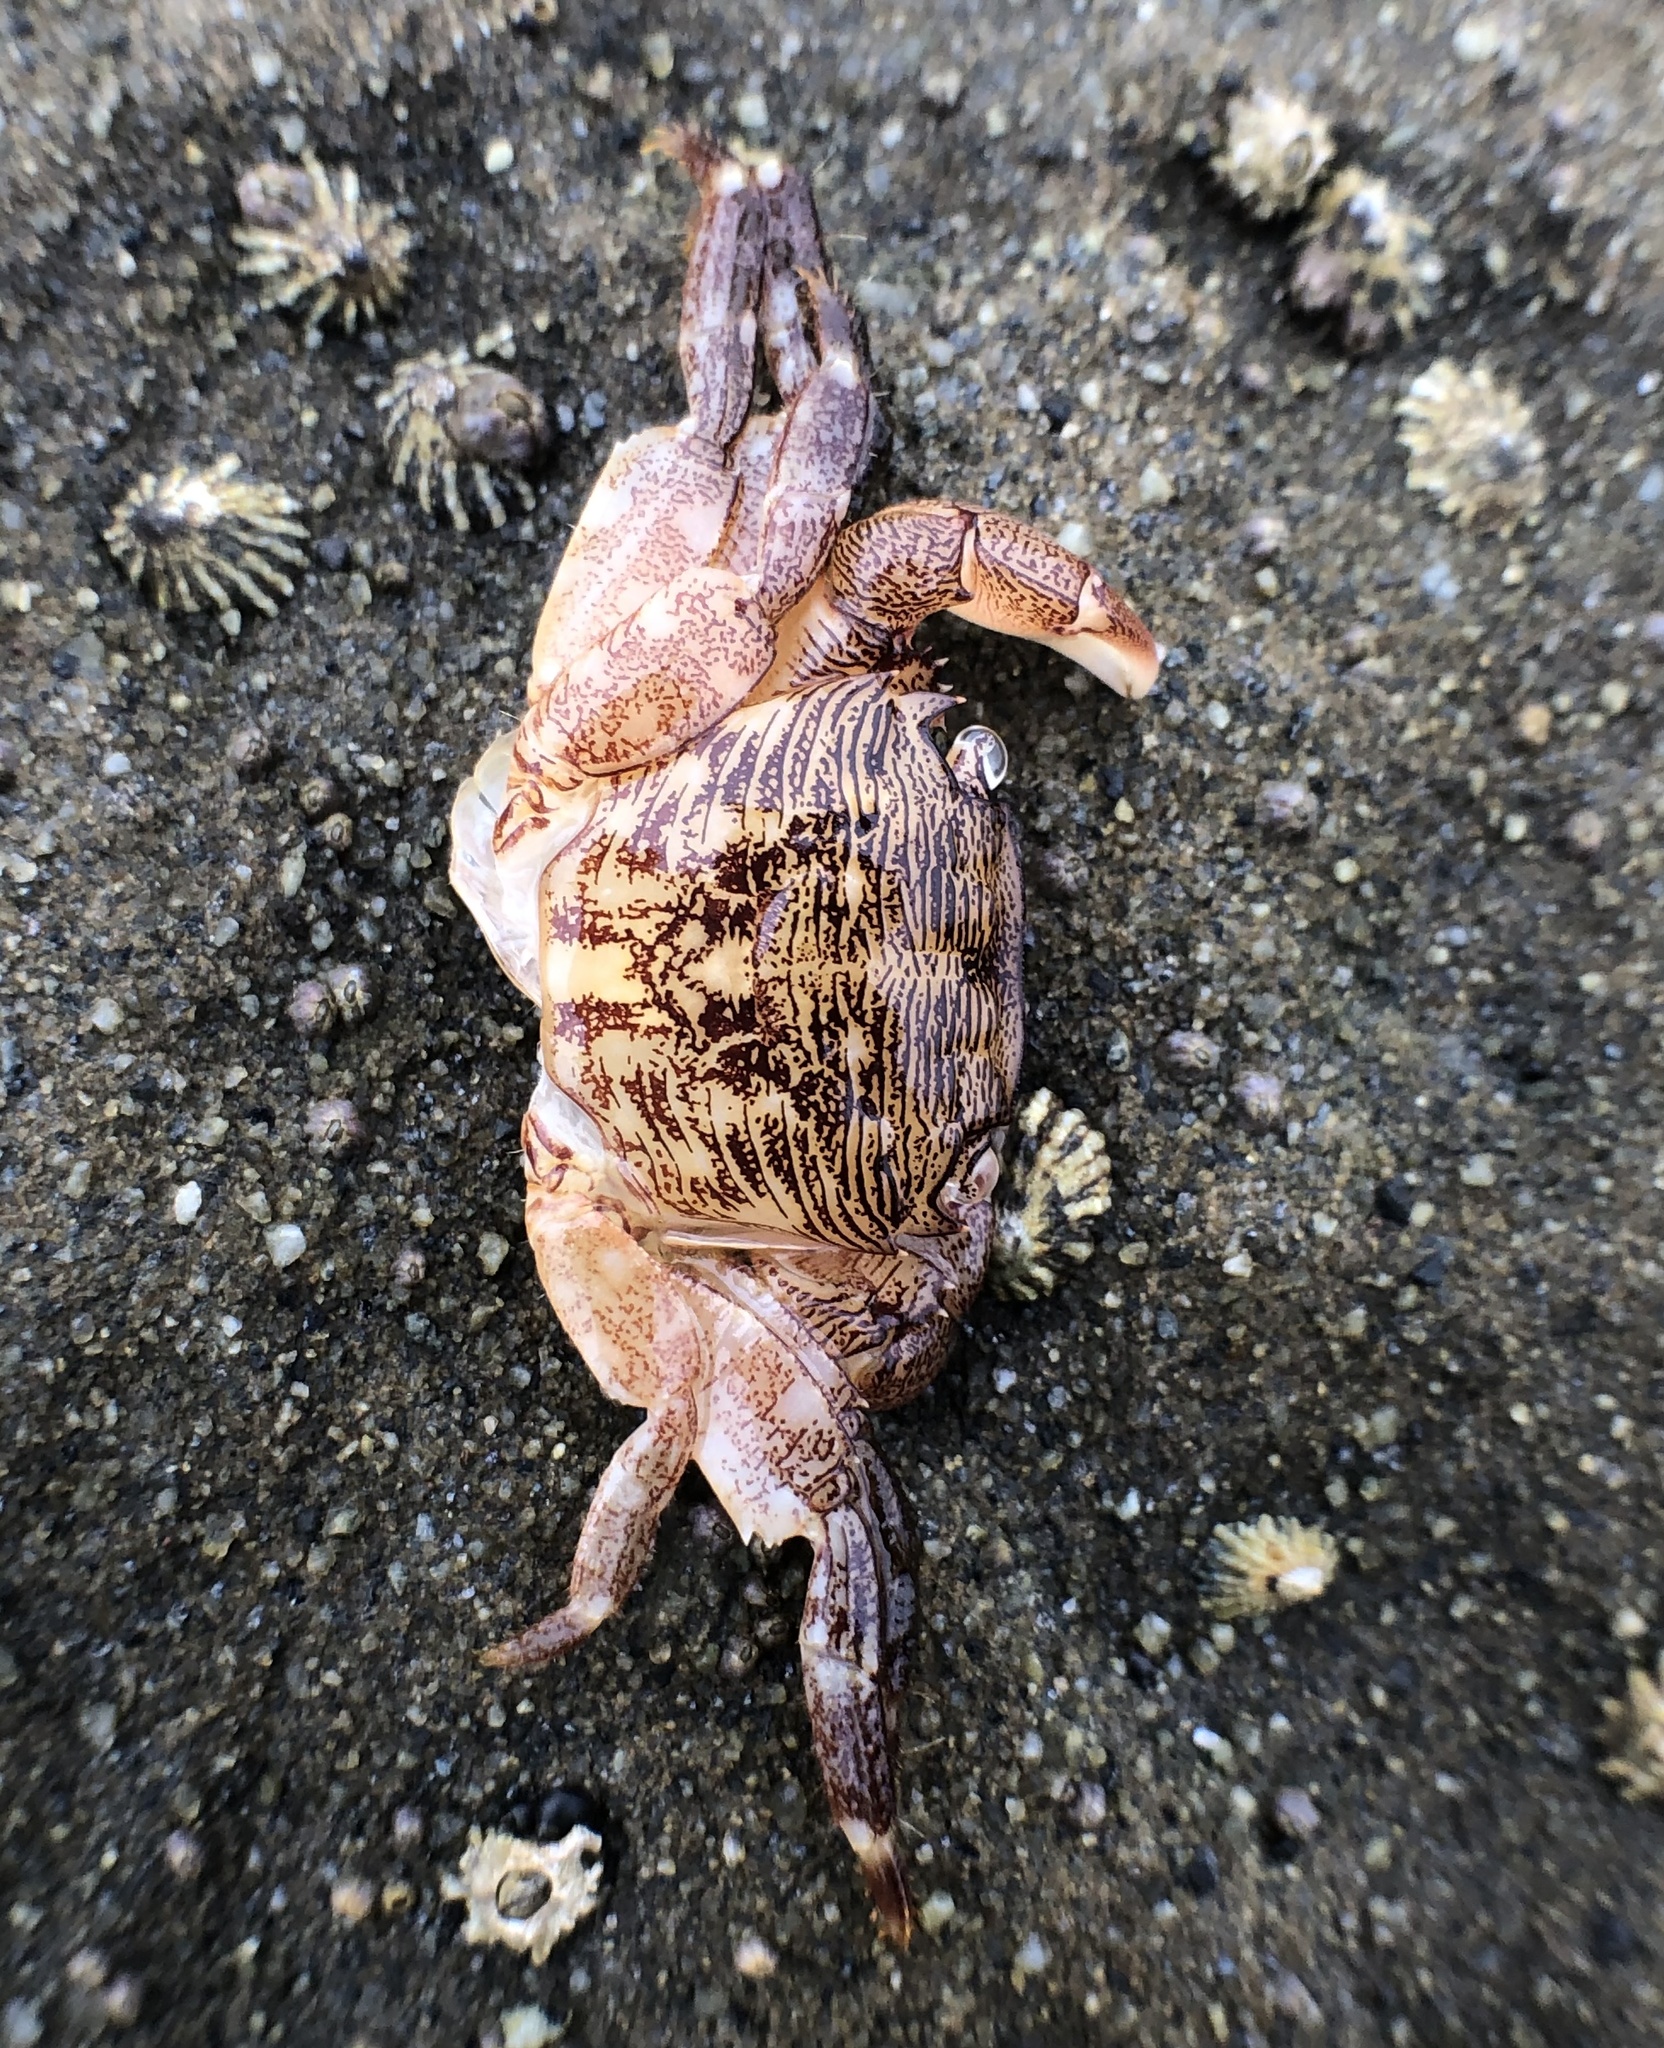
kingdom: Animalia
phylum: Arthropoda
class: Malacostraca
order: Decapoda
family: Grapsidae
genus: Pachygrapsus
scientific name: Pachygrapsus crassipes
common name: Striped shore crab
